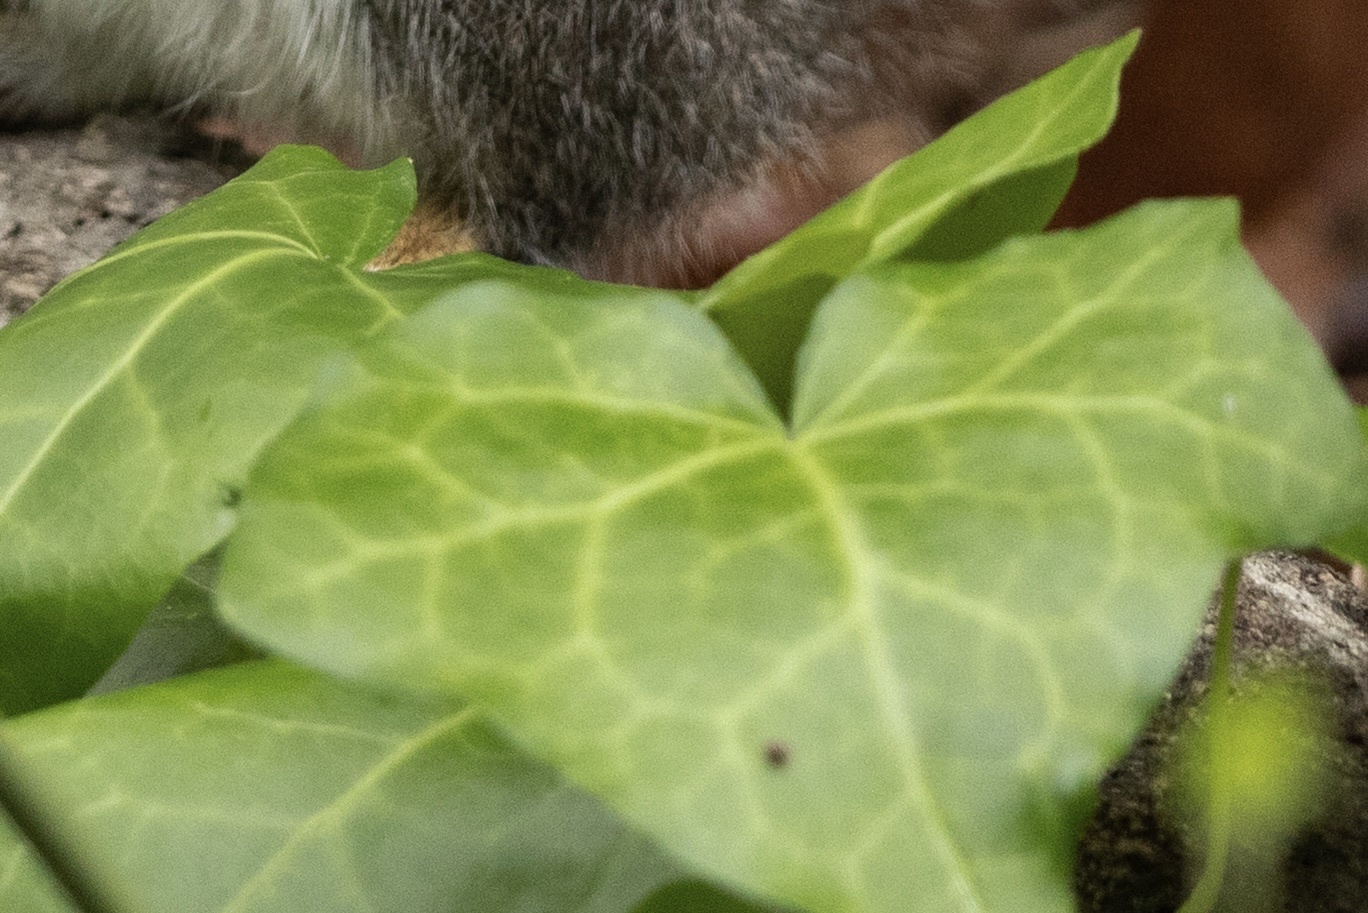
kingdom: Plantae
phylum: Tracheophyta
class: Magnoliopsida
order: Apiales
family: Araliaceae
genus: Hedera
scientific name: Hedera helix
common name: Ivy
